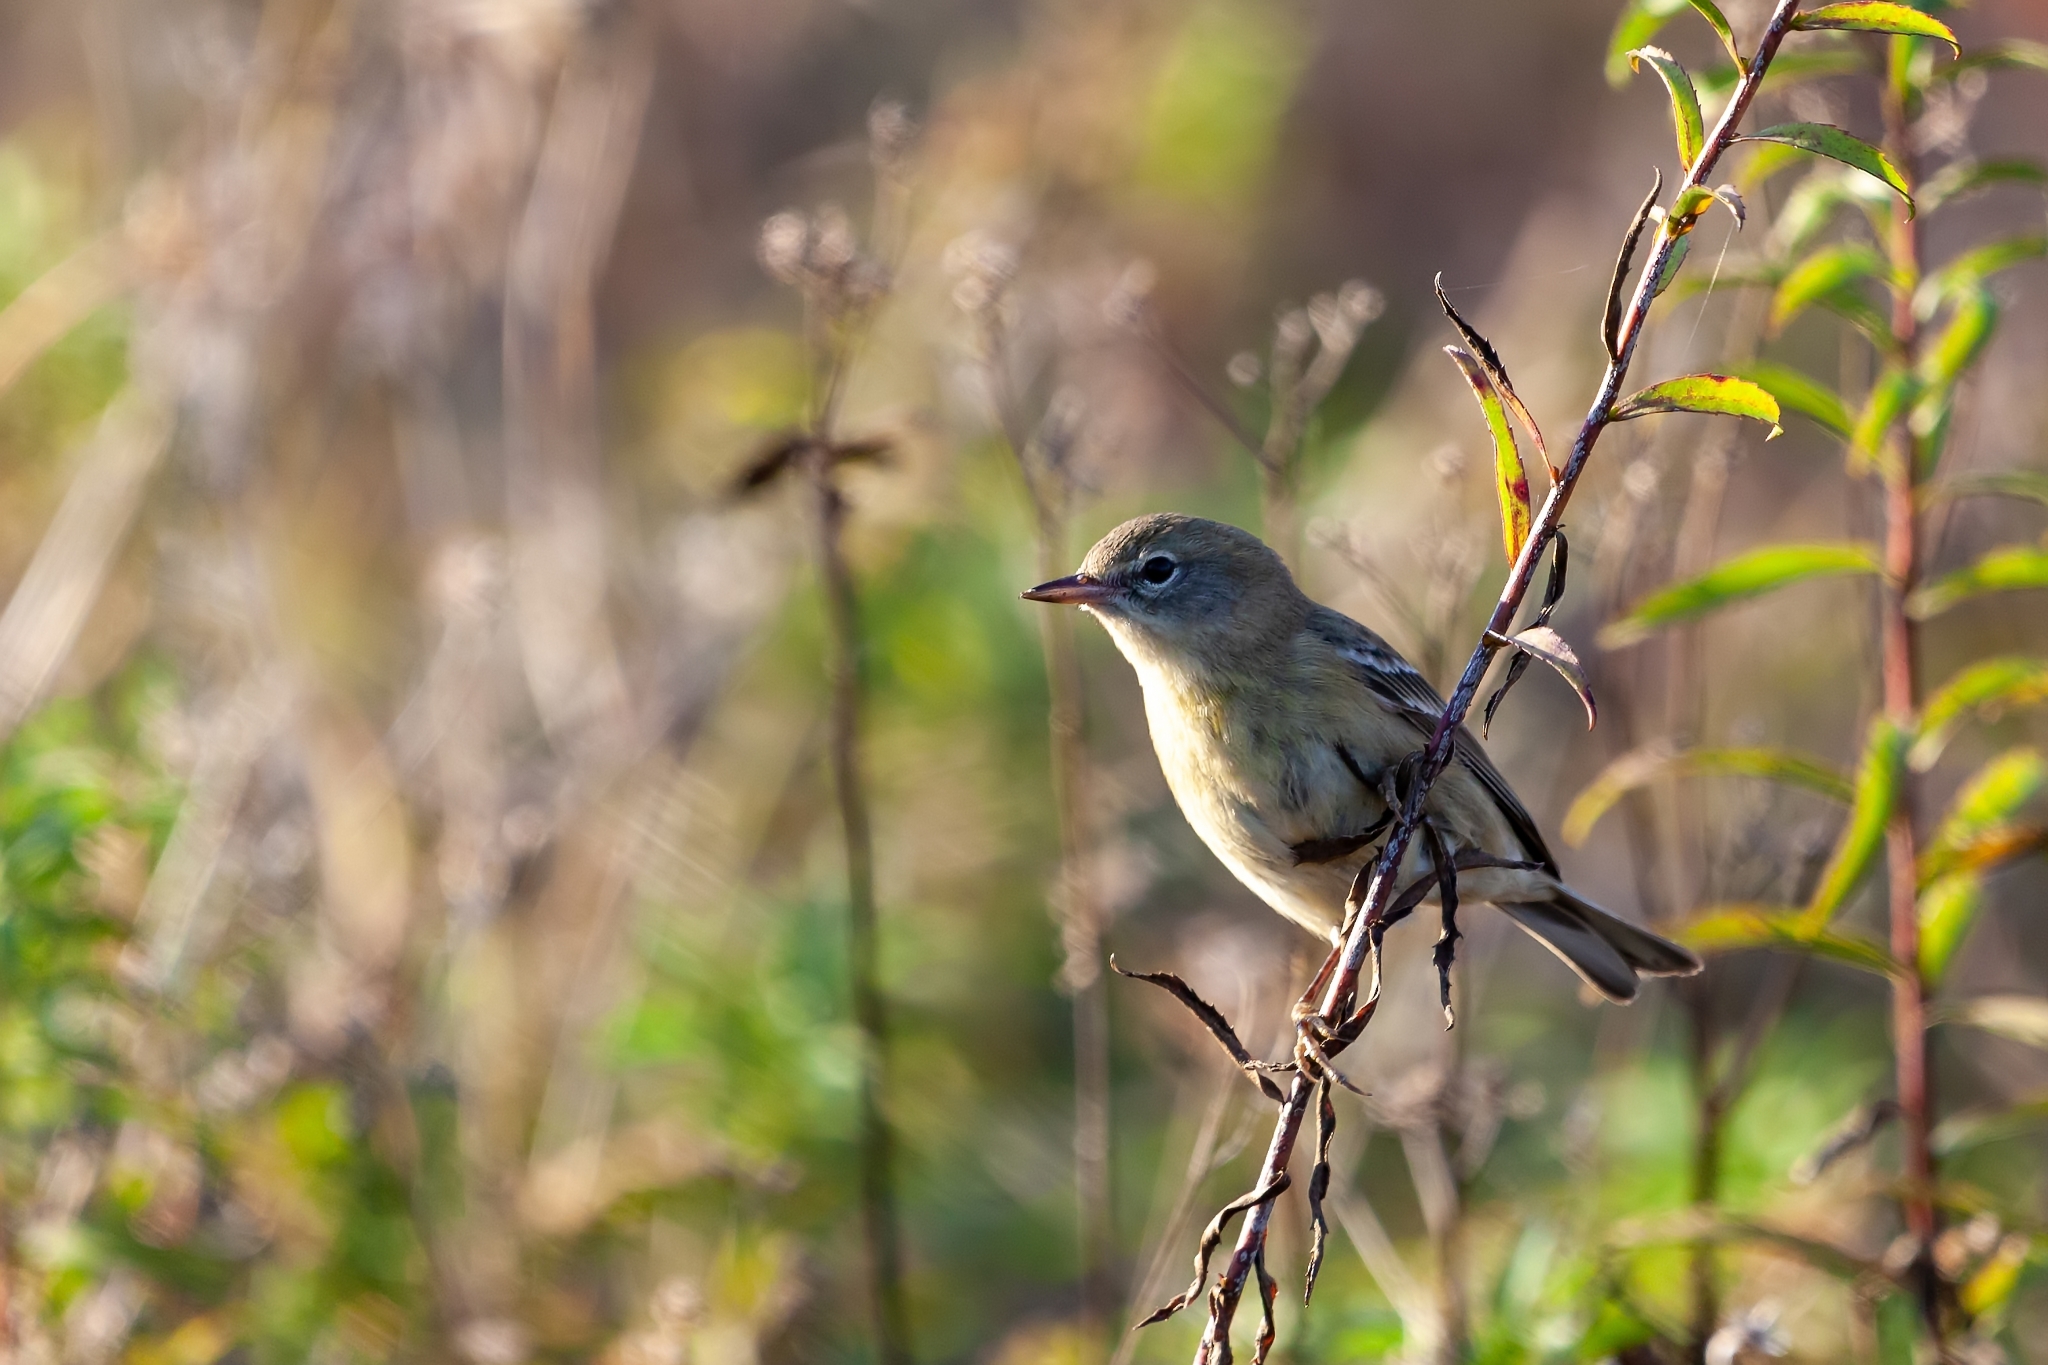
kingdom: Animalia
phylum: Chordata
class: Aves
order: Passeriformes
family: Parulidae
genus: Setophaga
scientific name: Setophaga pinus
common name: Pine warbler
